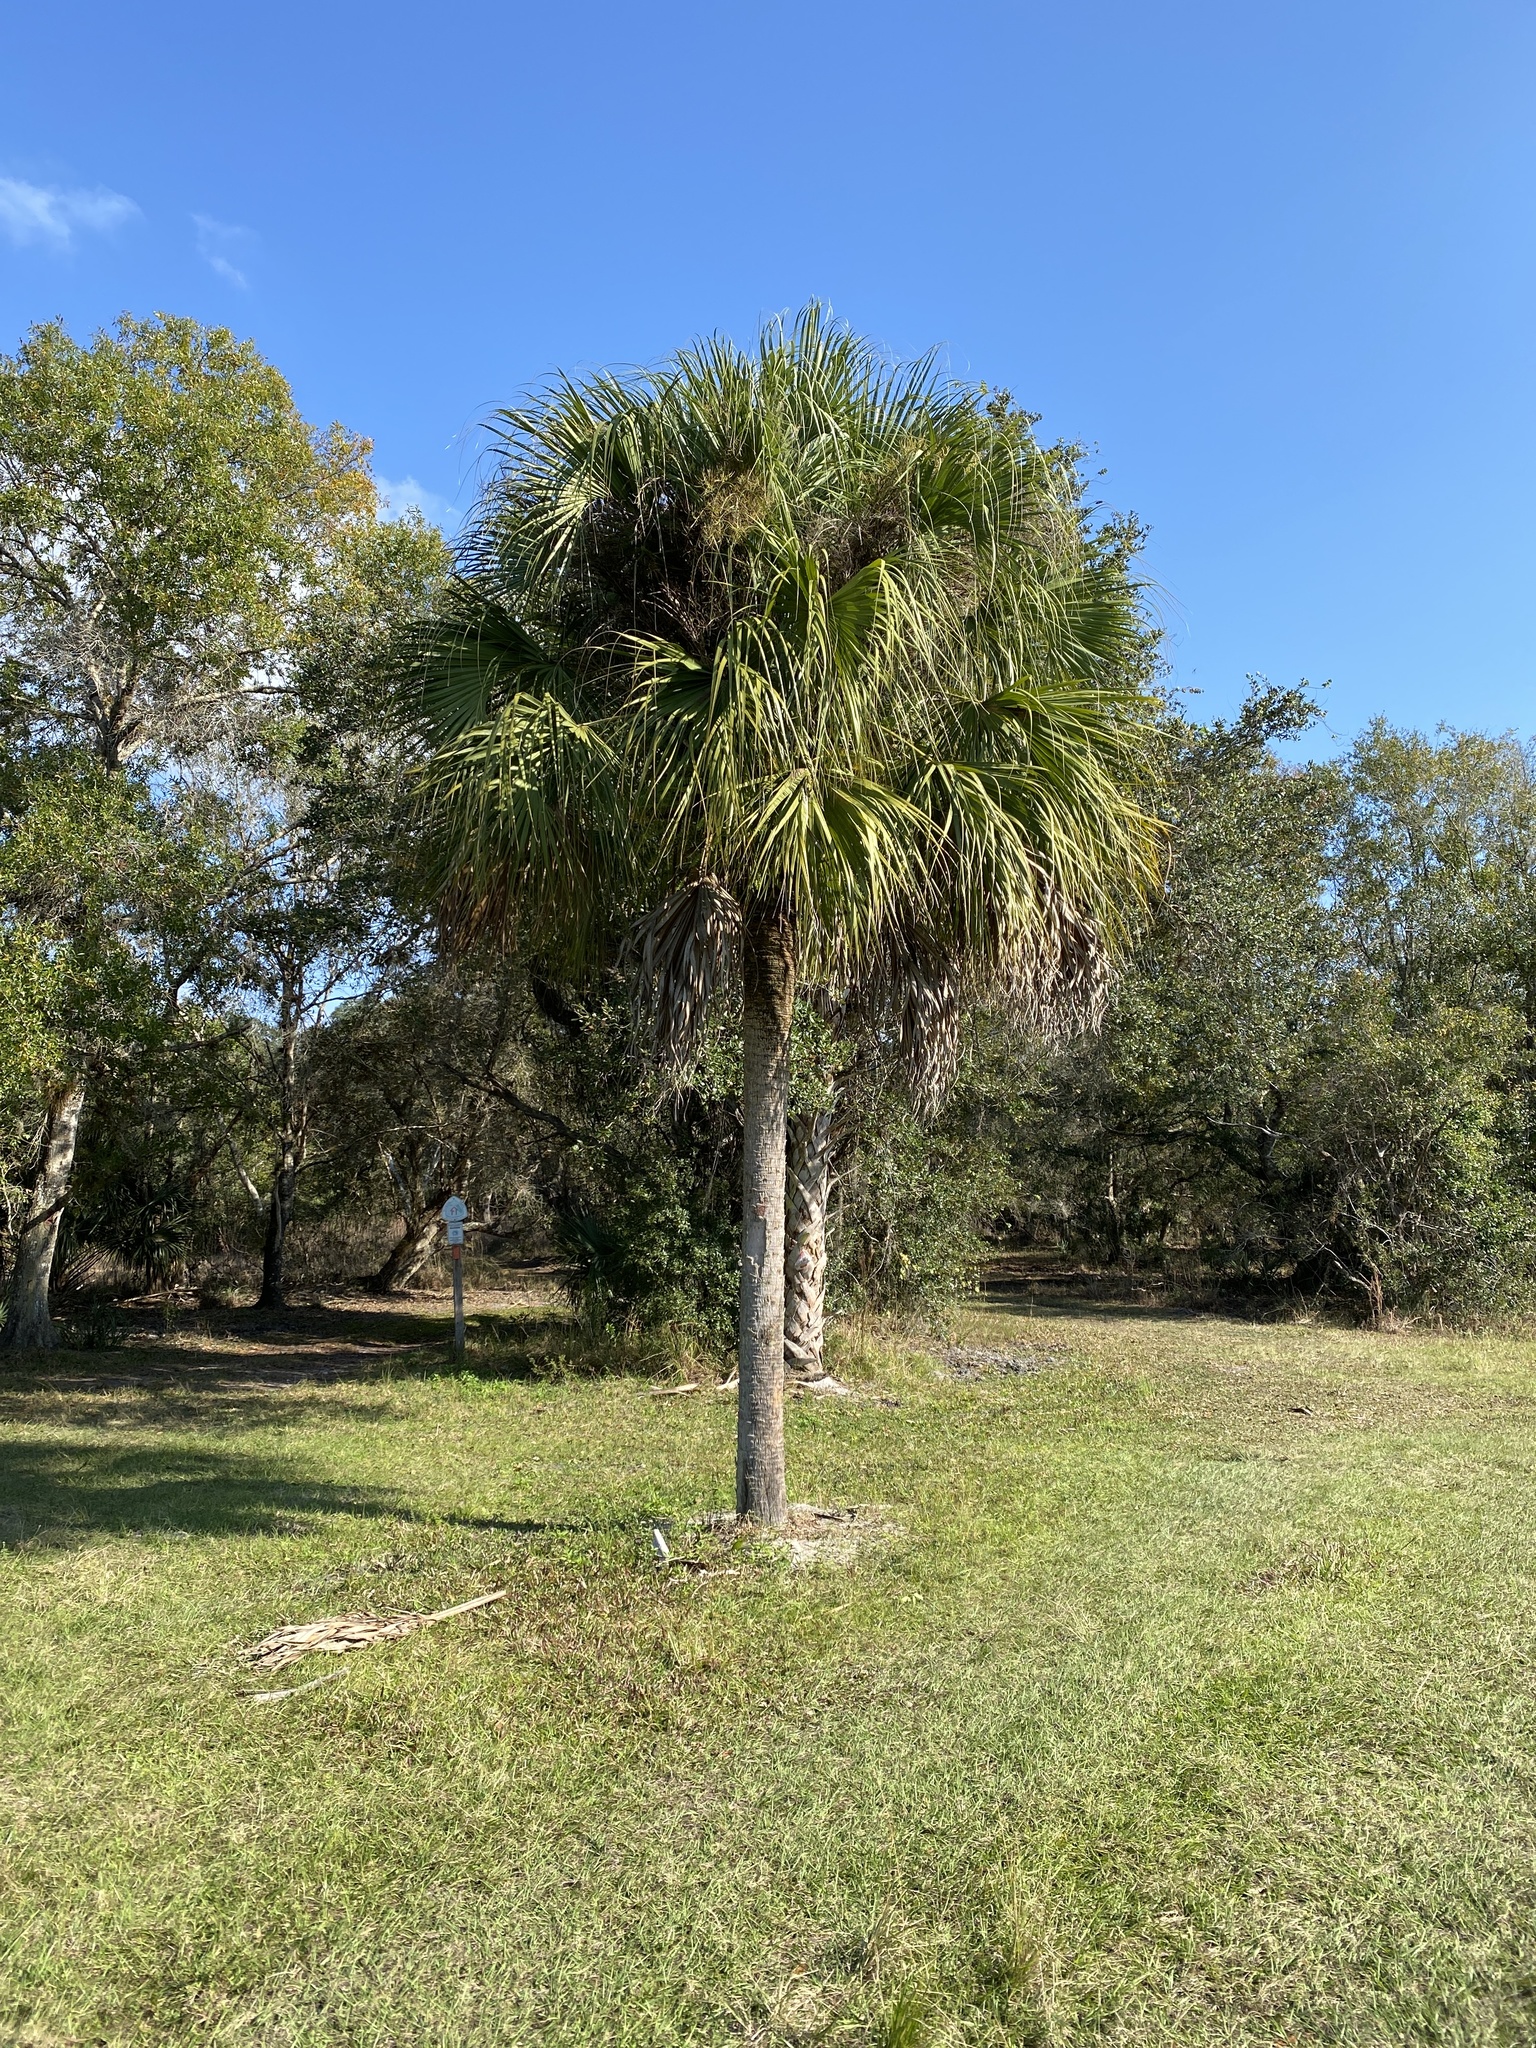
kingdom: Plantae
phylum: Tracheophyta
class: Liliopsida
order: Arecales
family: Arecaceae
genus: Sabal
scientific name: Sabal palmetto
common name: Blue palmetto
